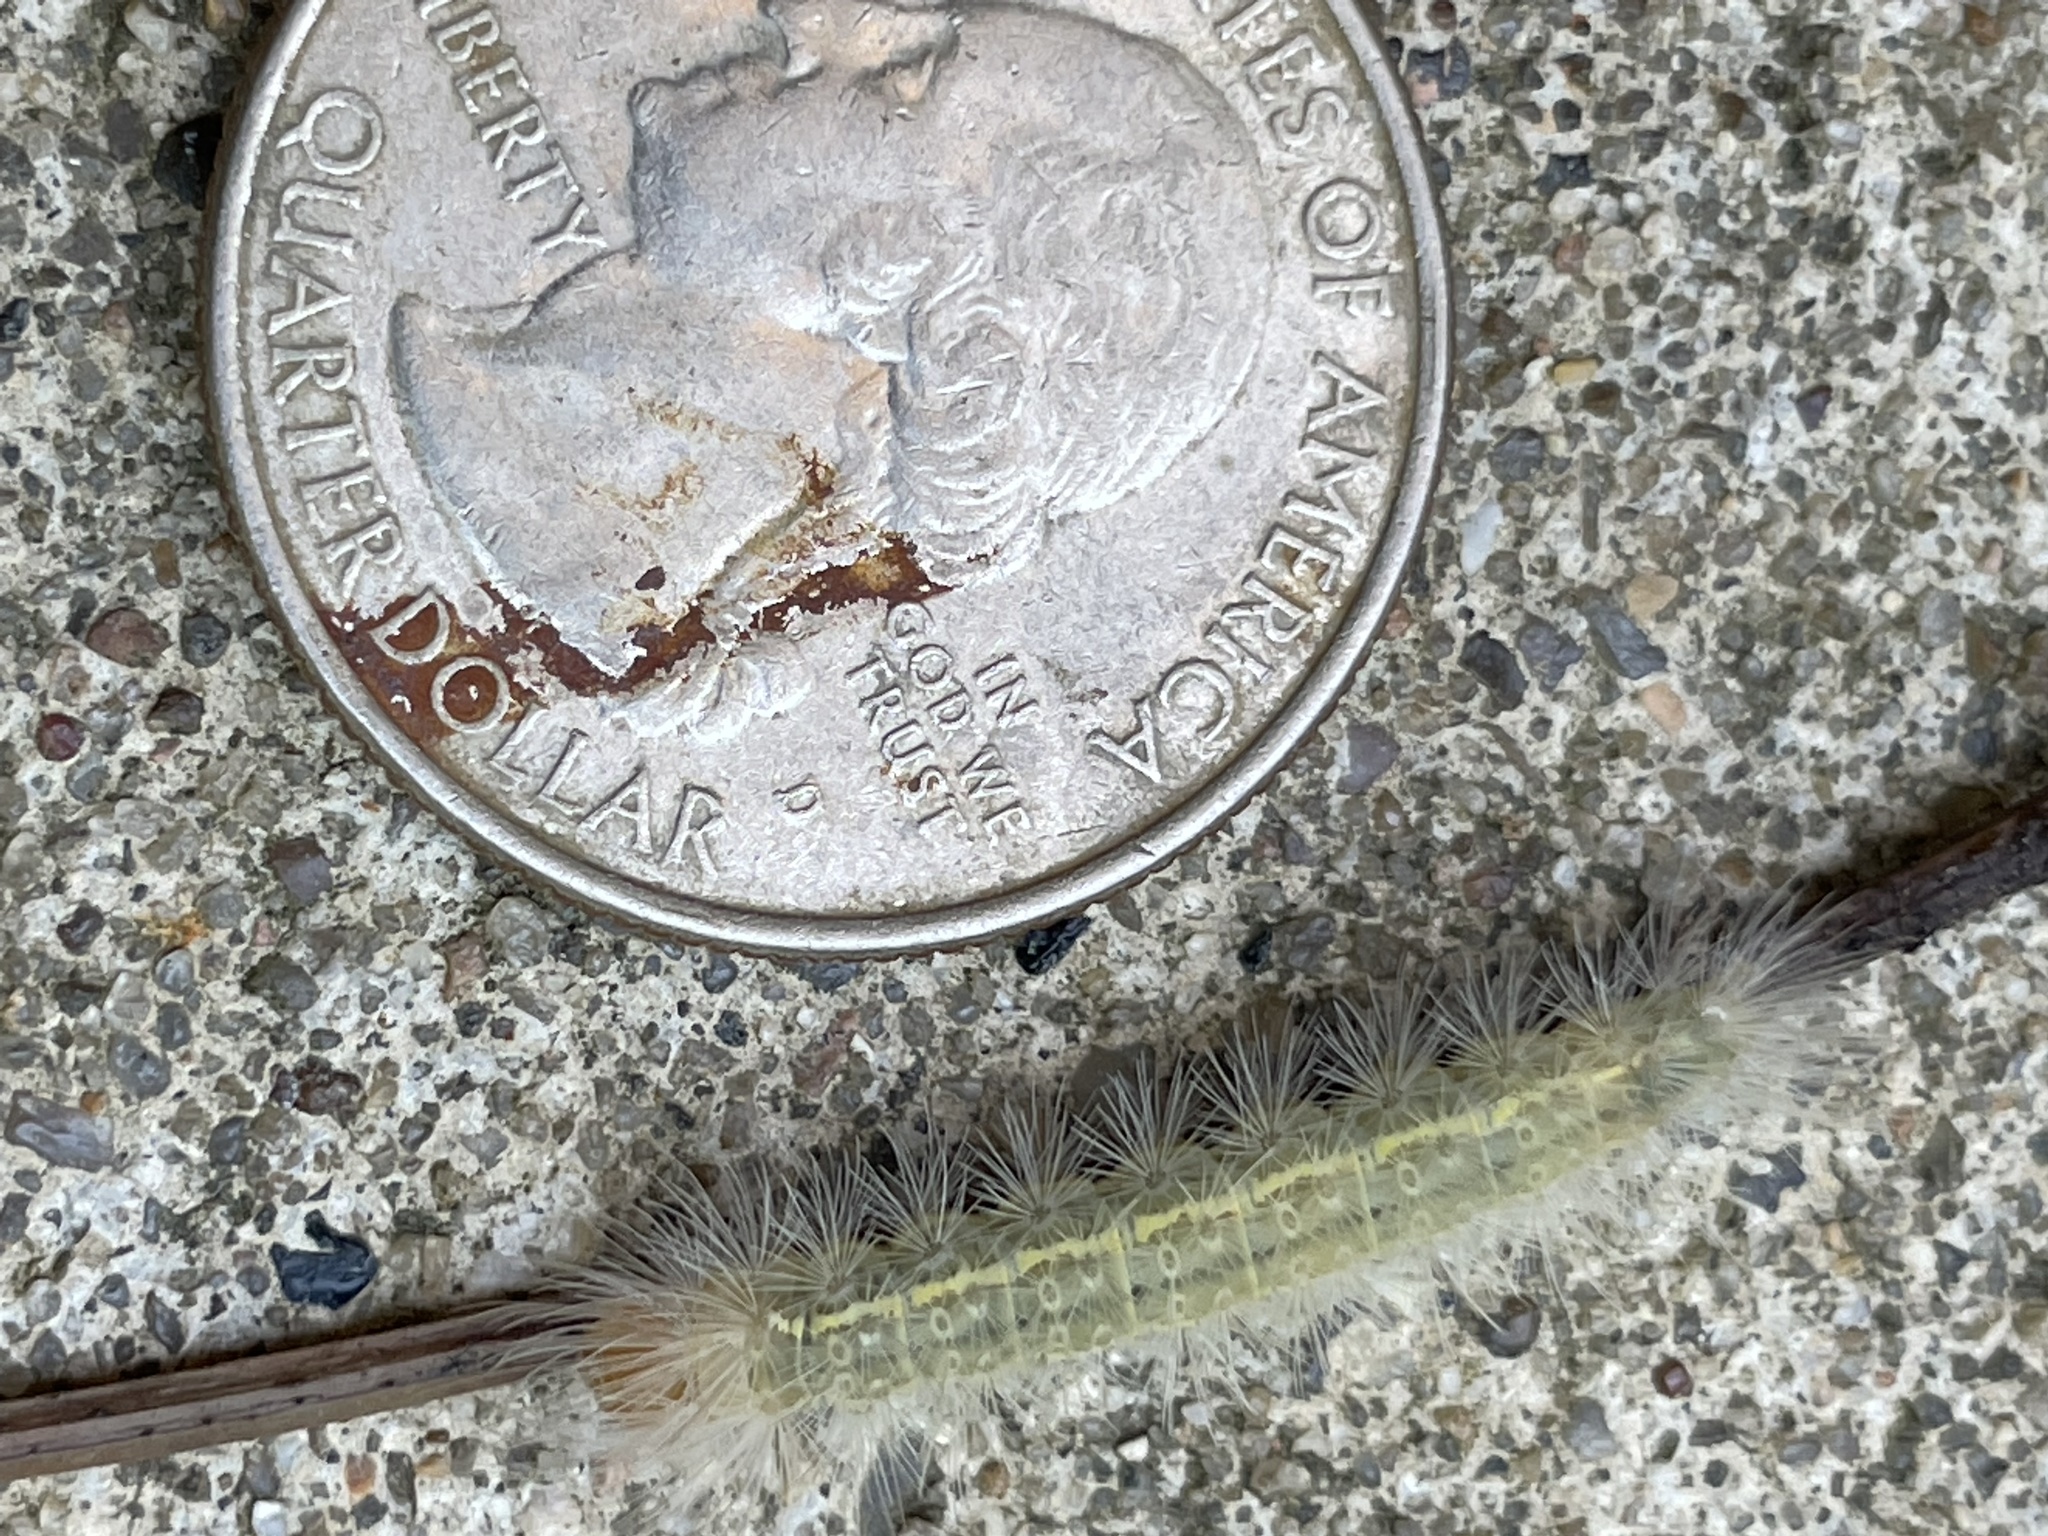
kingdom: Animalia
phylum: Arthropoda
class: Insecta
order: Lepidoptera
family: Erebidae
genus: Cisseps
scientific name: Cisseps fulvicollis
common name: Yellow-collared scape moth
